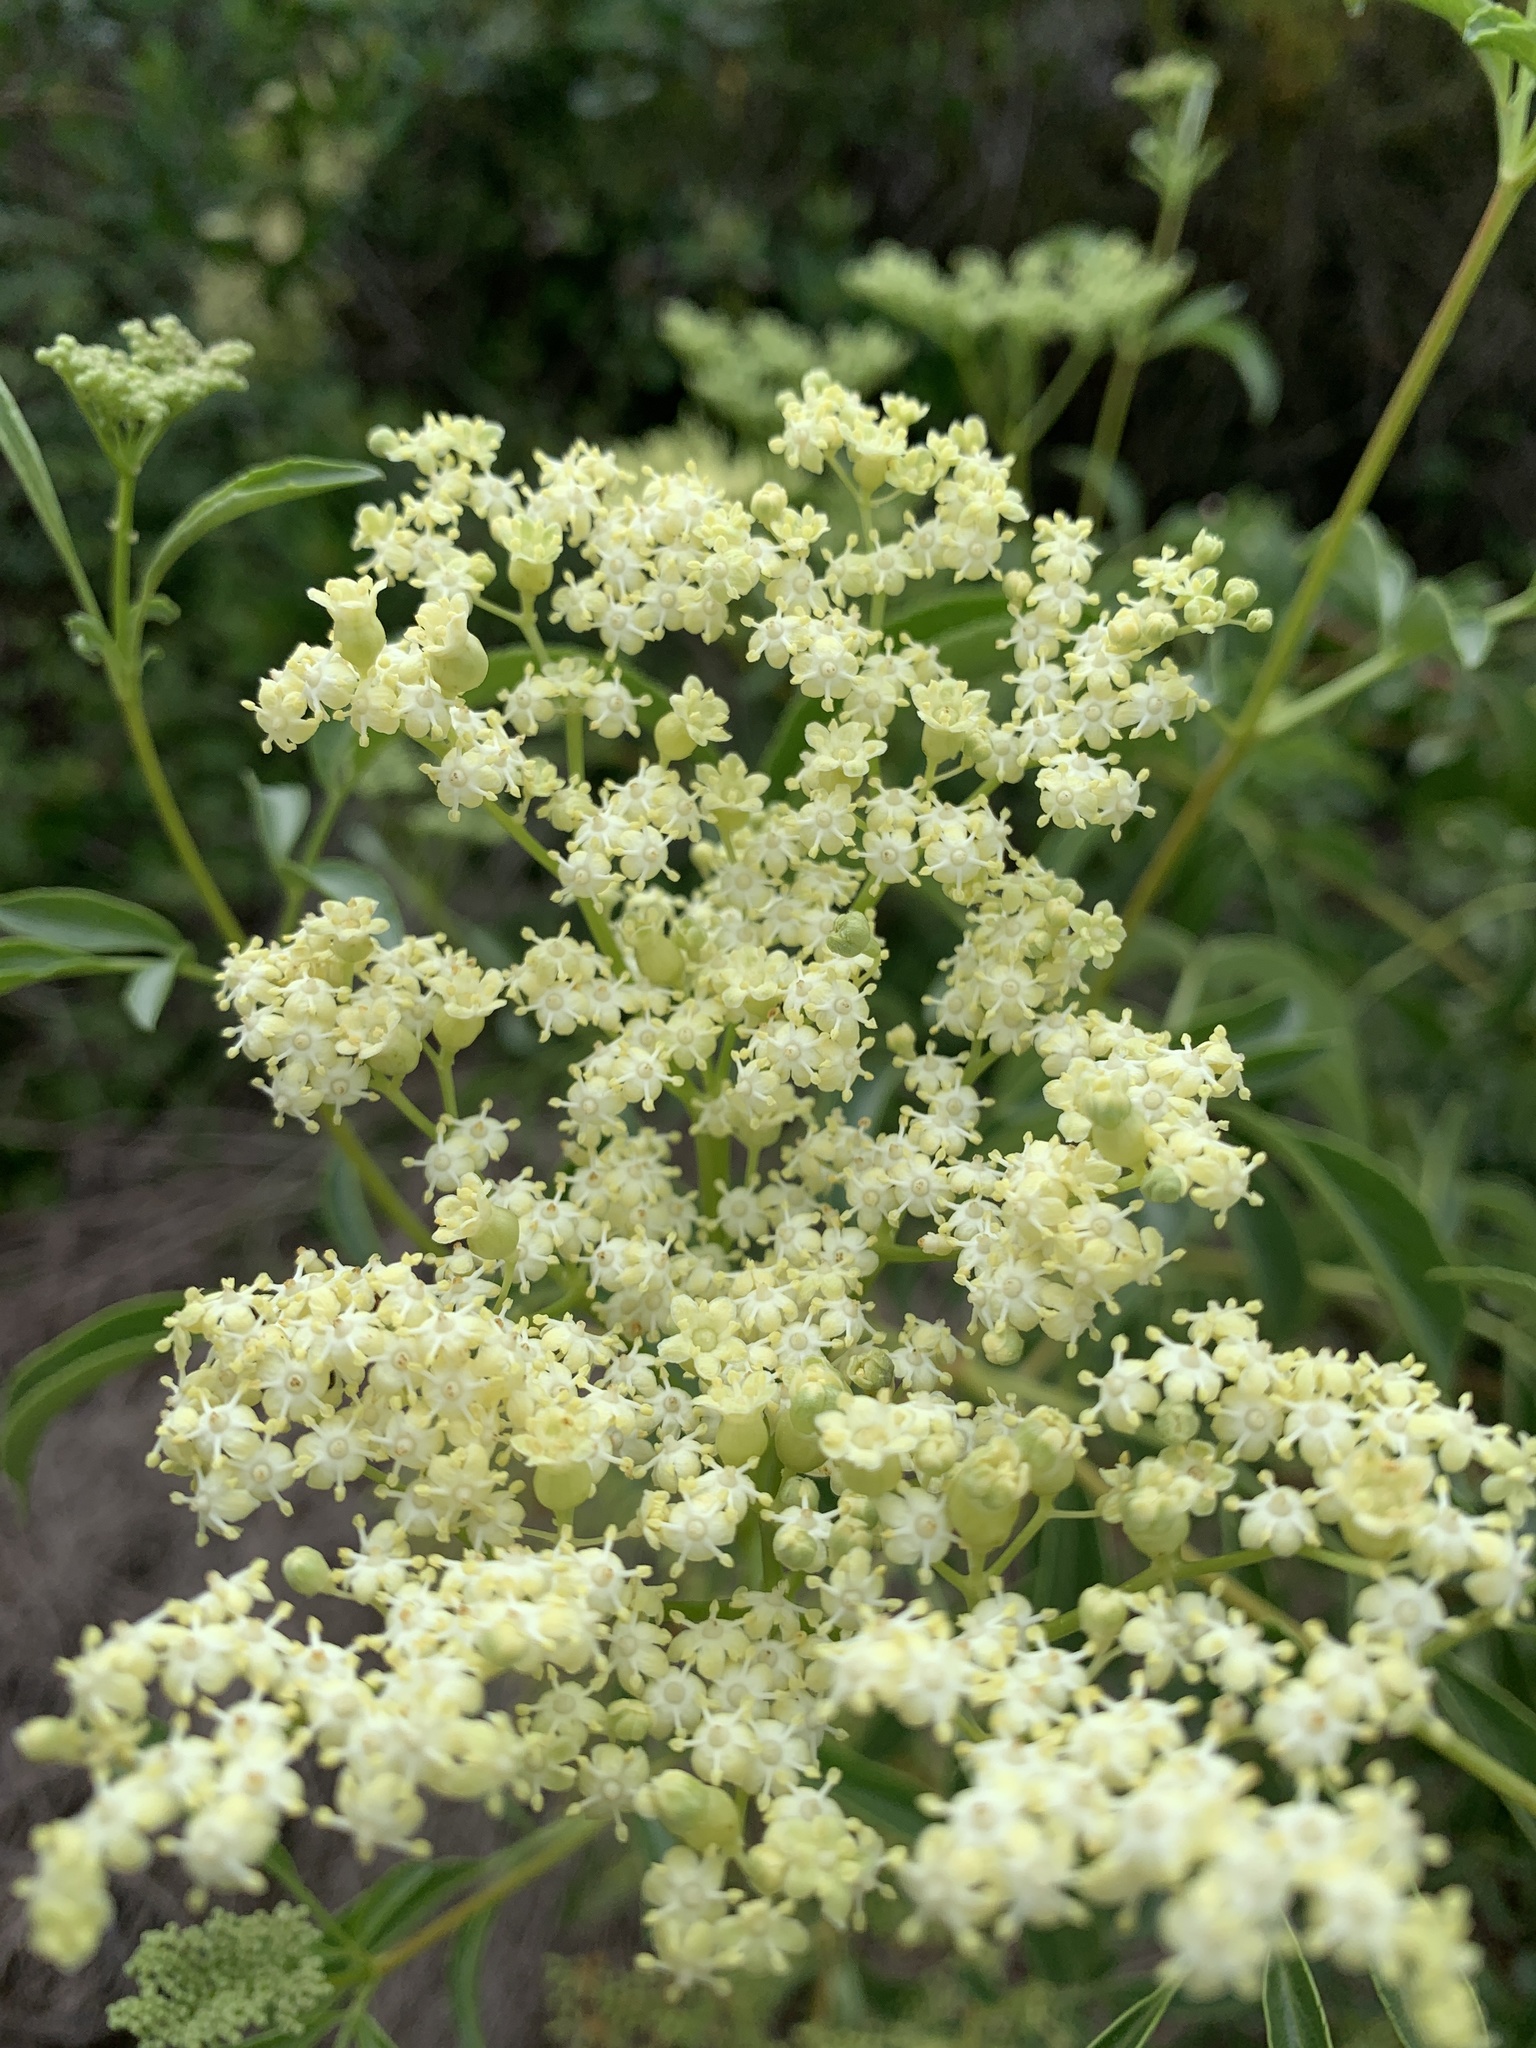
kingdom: Plantae
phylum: Tracheophyta
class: Magnoliopsida
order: Dipsacales
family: Viburnaceae
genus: Sambucus
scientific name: Sambucus cerulea
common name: Blue elder
